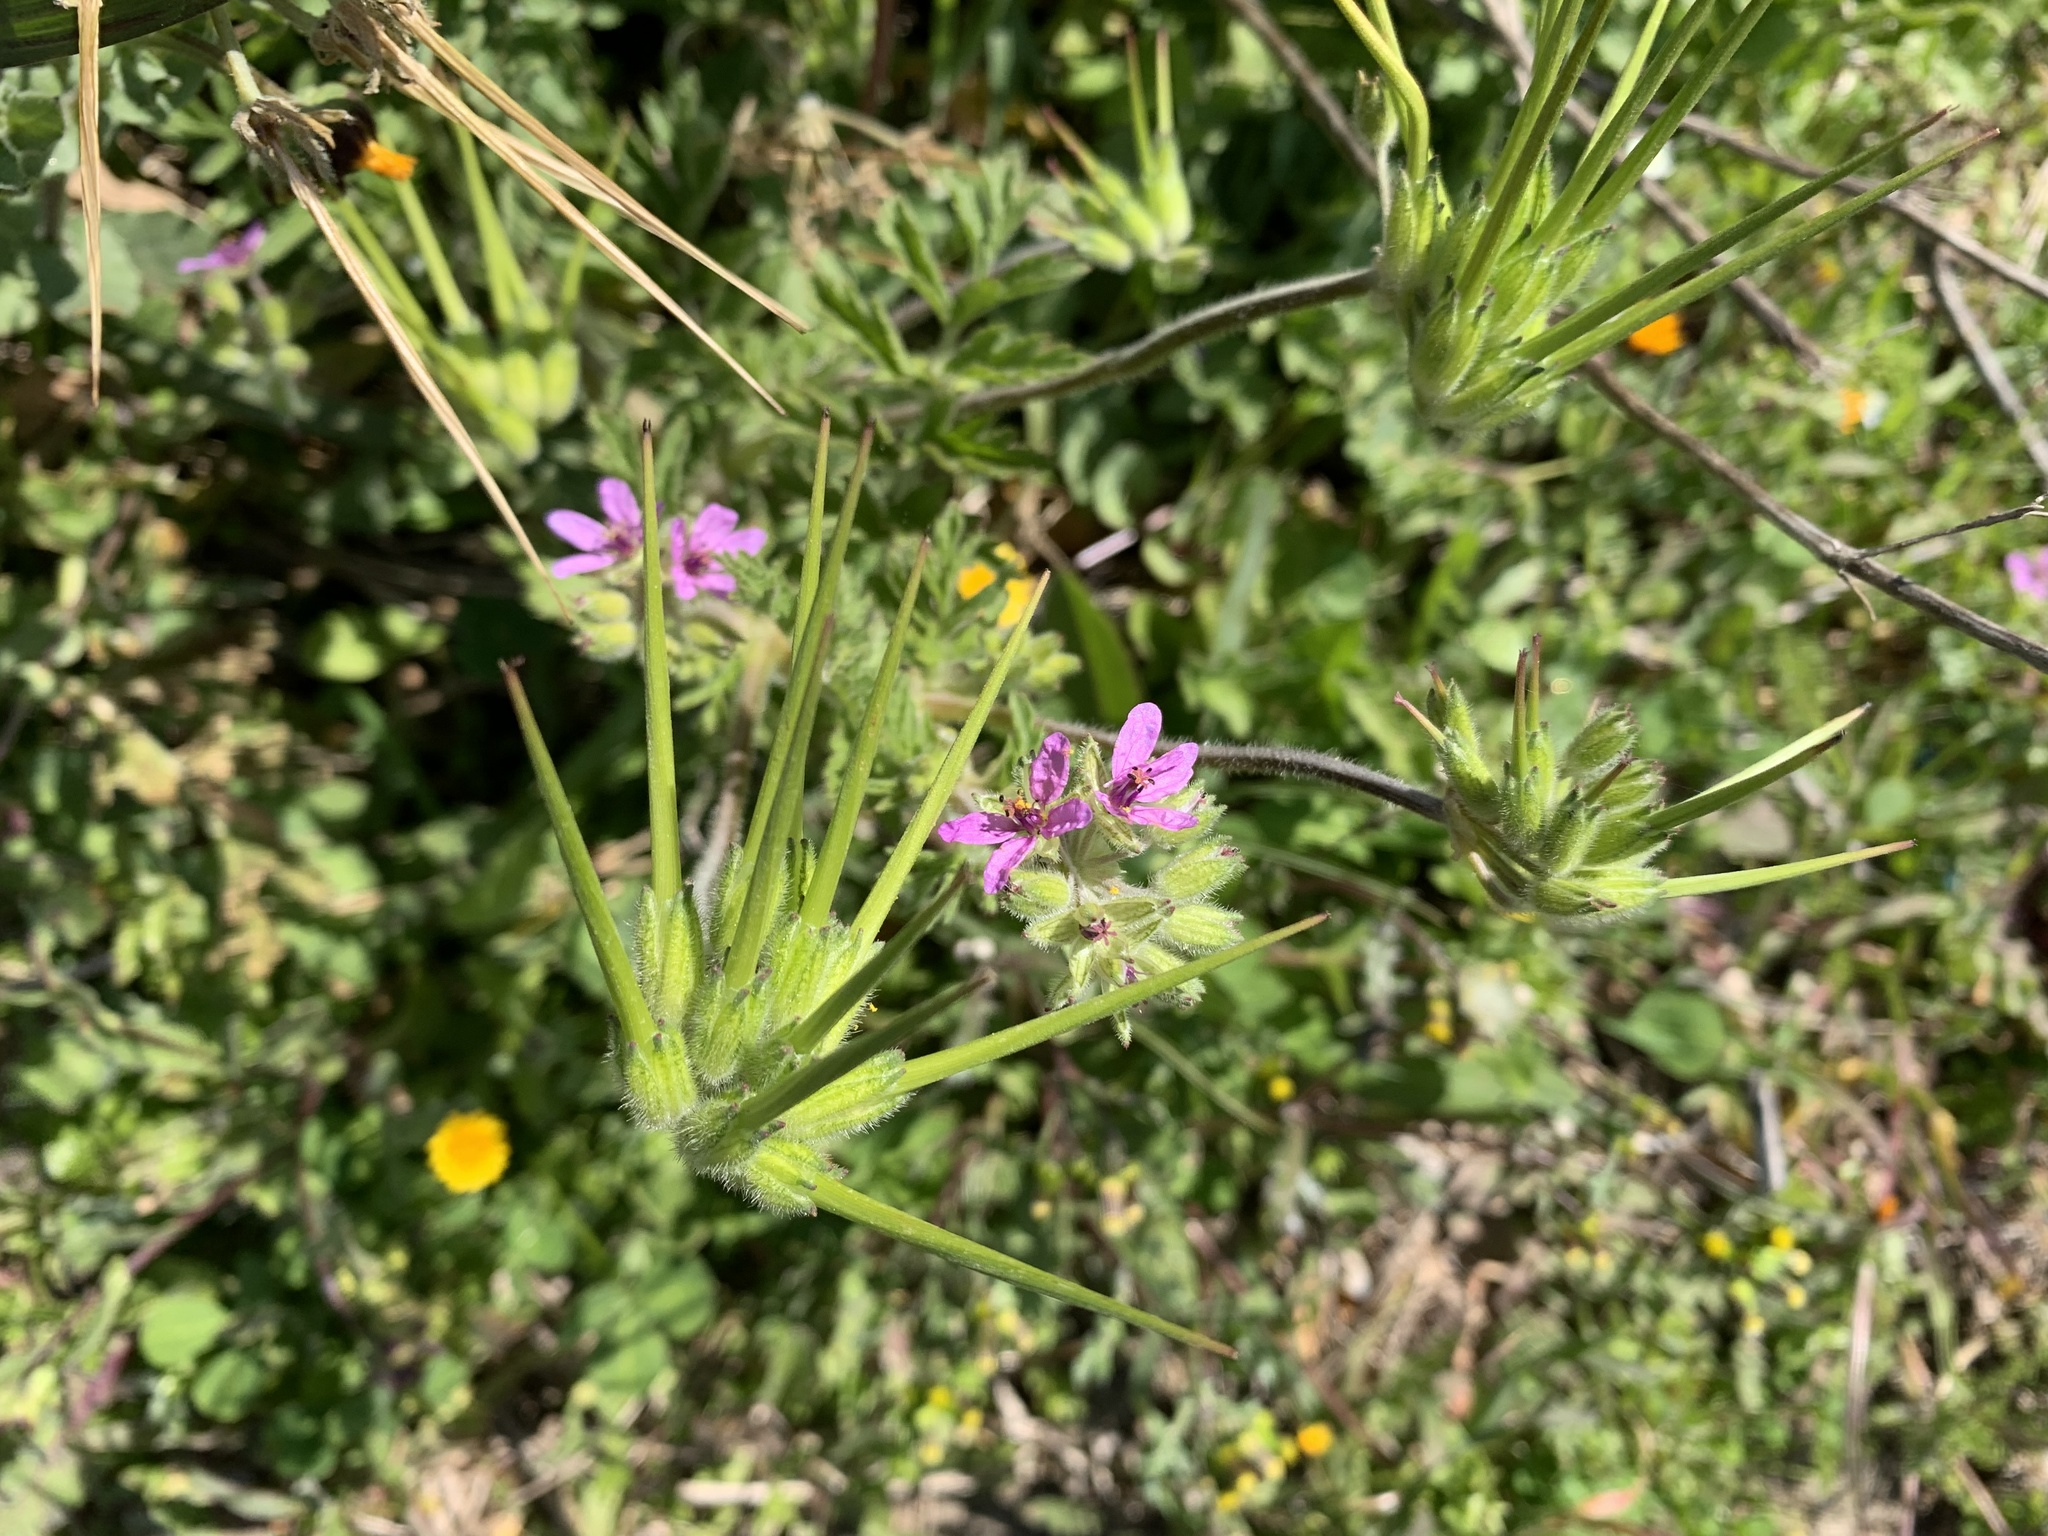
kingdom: Plantae
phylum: Tracheophyta
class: Magnoliopsida
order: Geraniales
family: Geraniaceae
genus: Erodium
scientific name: Erodium moschatum
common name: Musk stork's-bill
